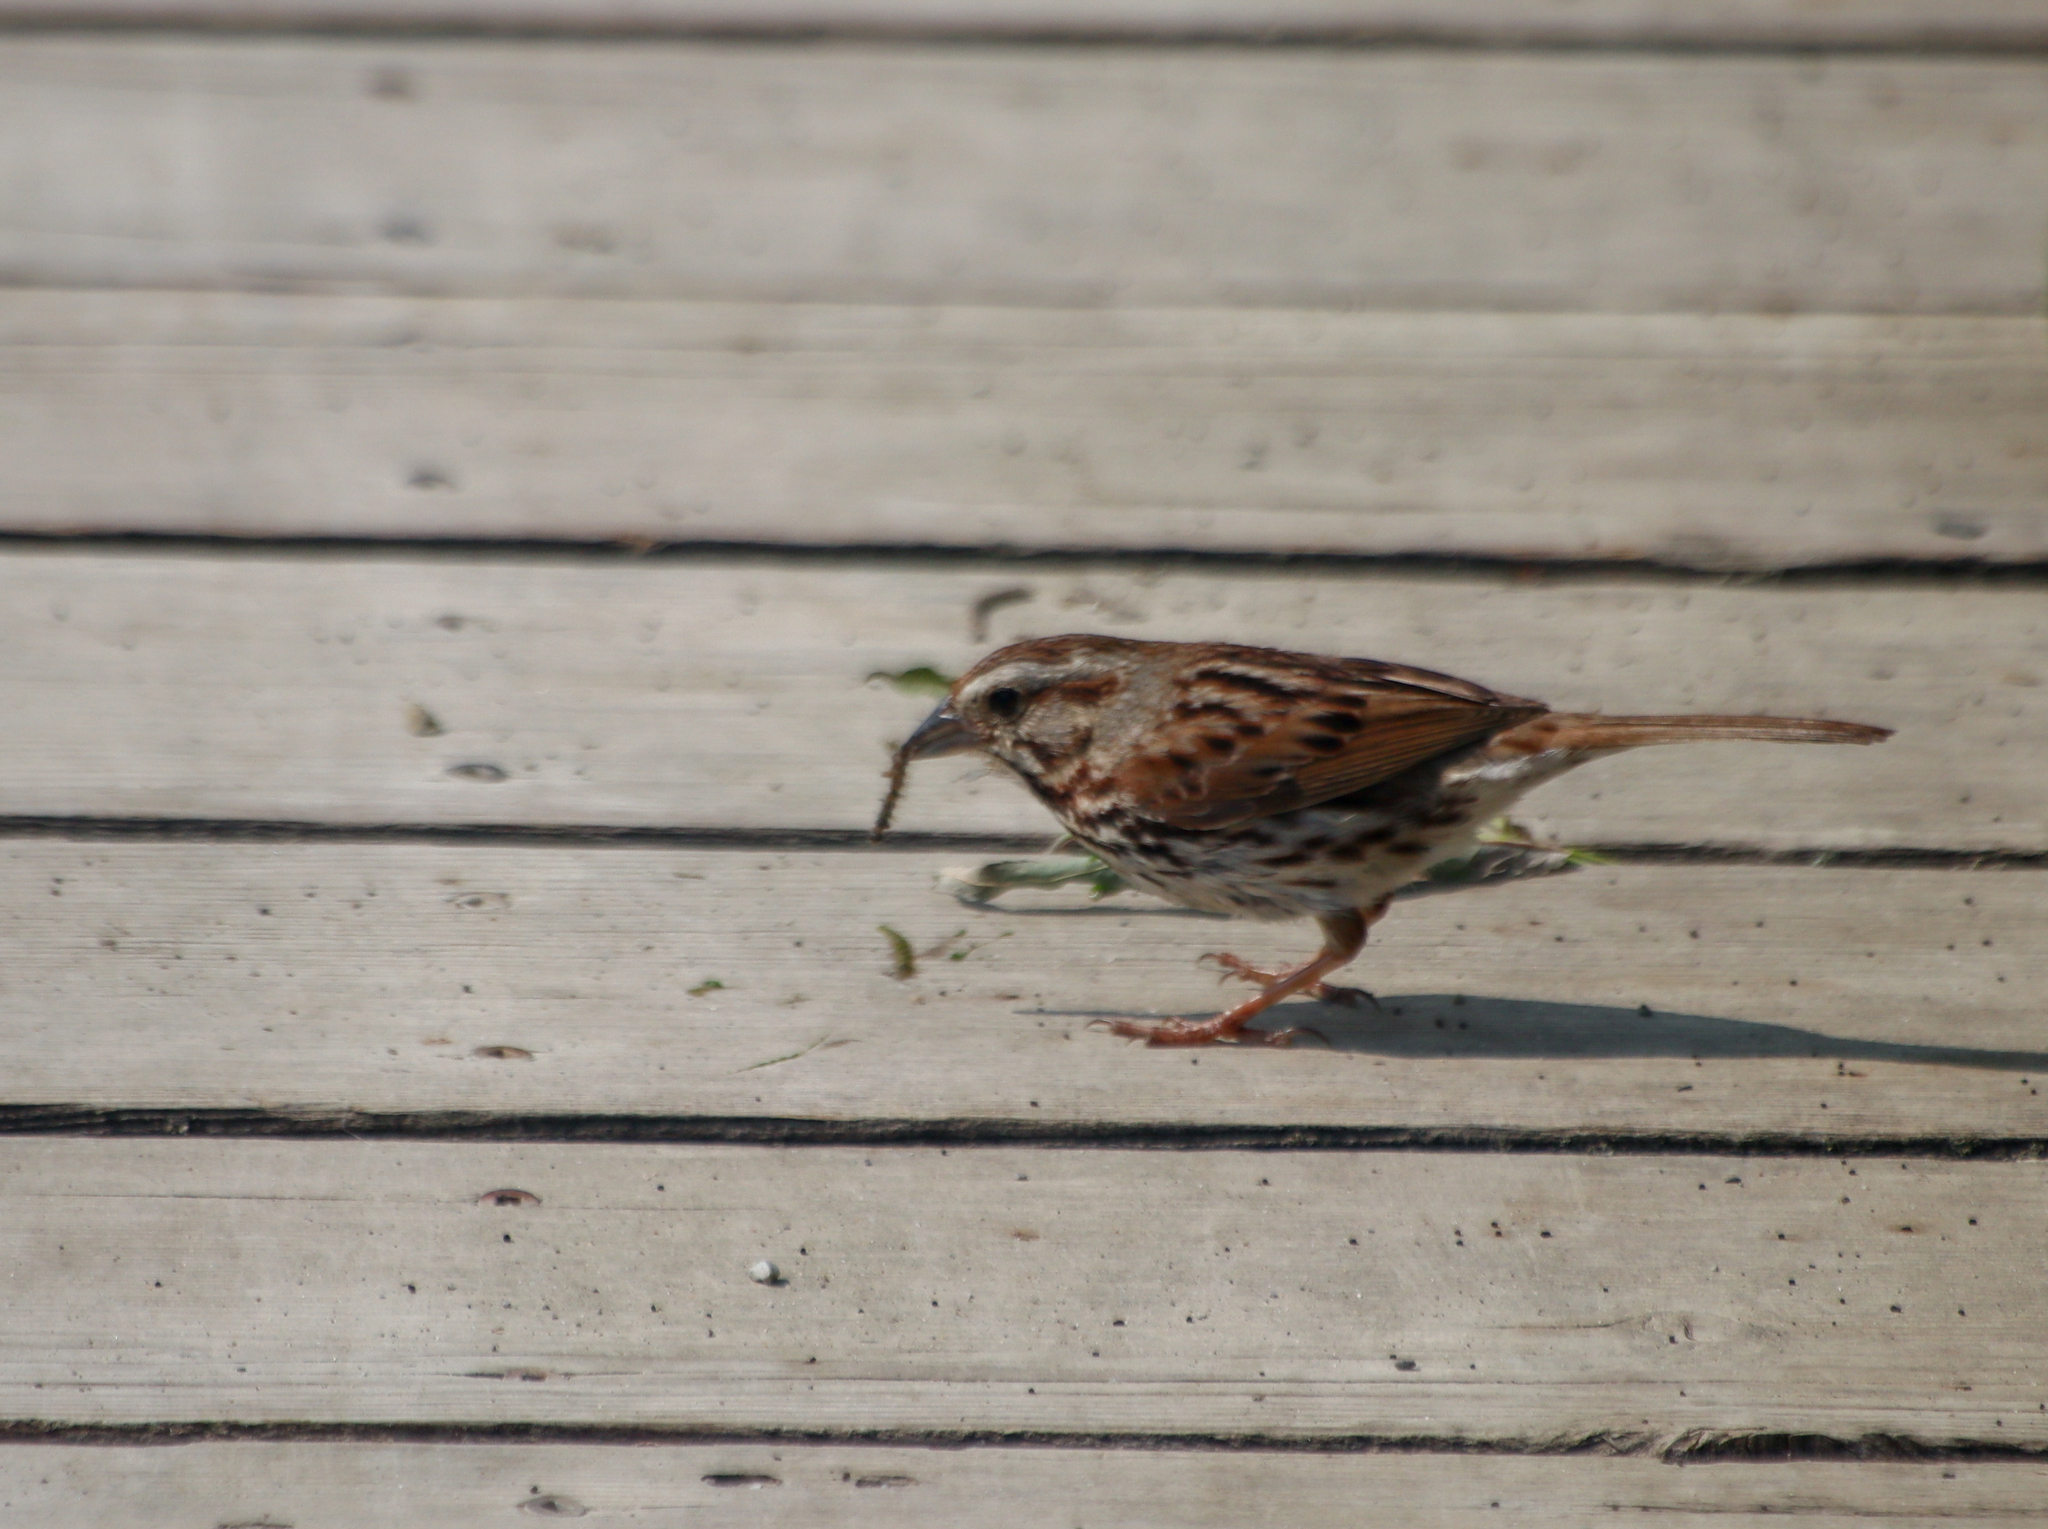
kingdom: Animalia
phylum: Chordata
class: Aves
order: Passeriformes
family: Passerellidae
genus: Melospiza
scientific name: Melospiza melodia
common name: Song sparrow
